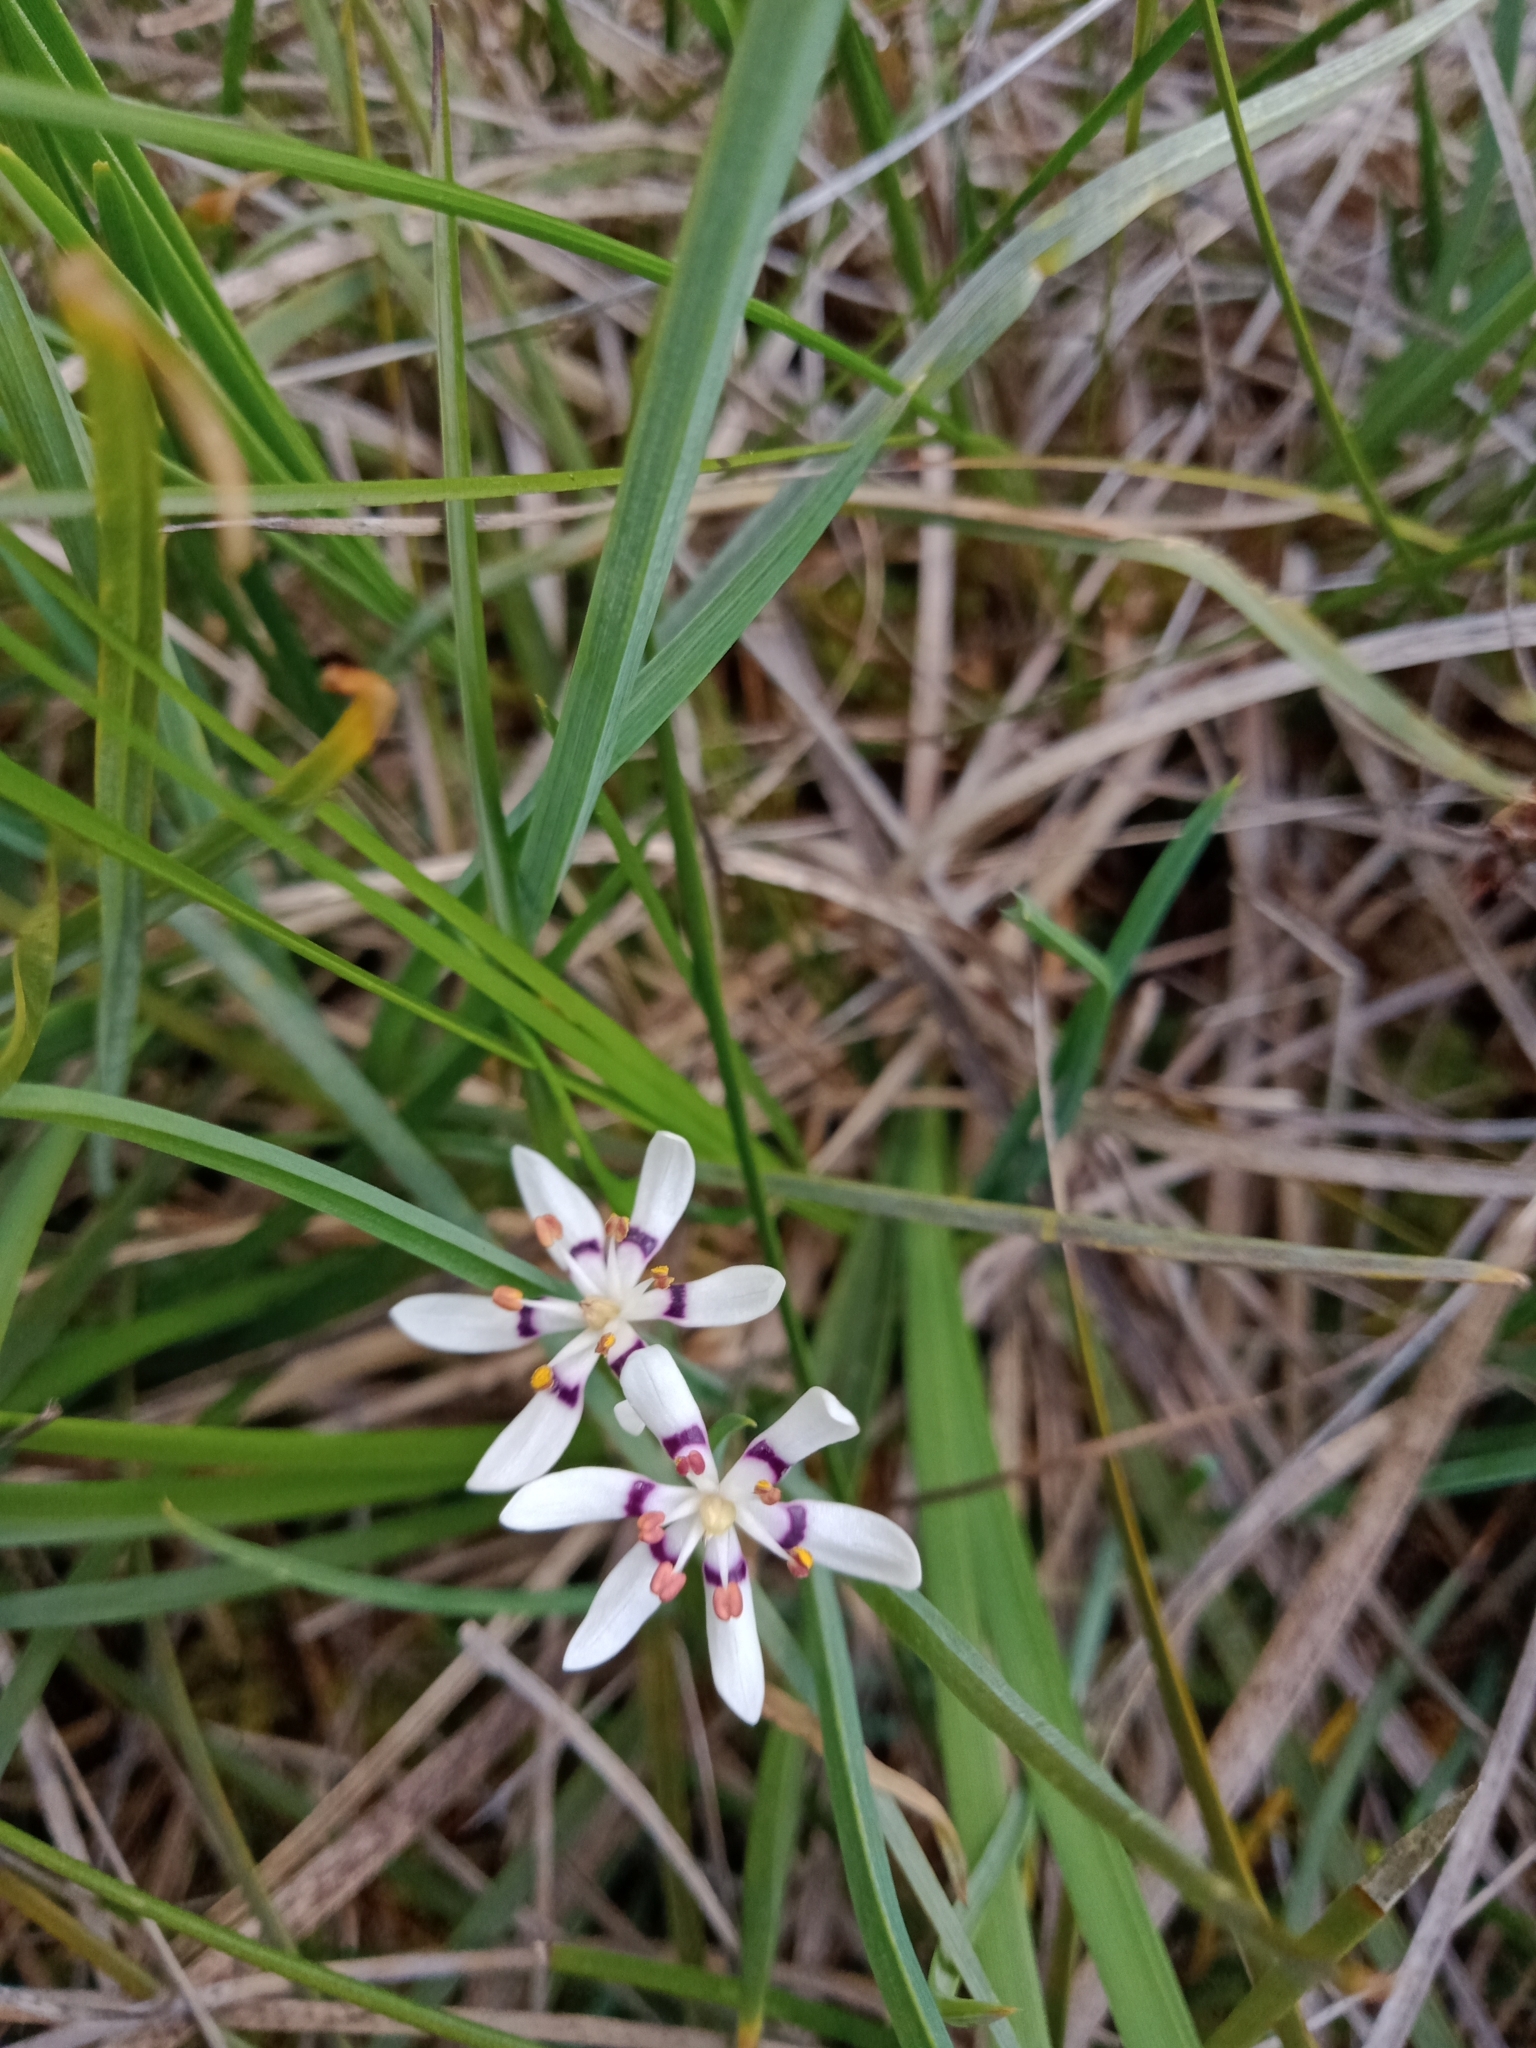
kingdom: Plantae
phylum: Tracheophyta
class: Liliopsida
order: Liliales
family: Colchicaceae
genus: Wurmbea
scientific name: Wurmbea dioica
